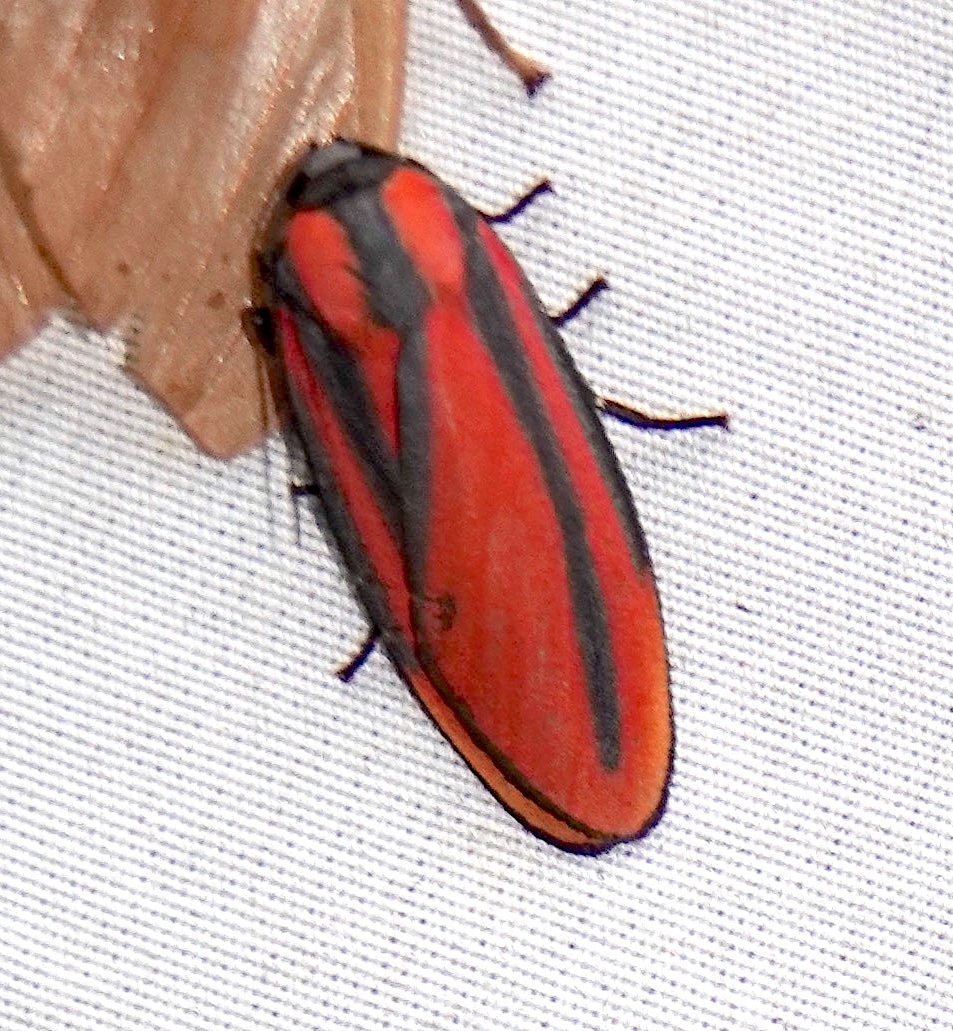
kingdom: Animalia
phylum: Arthropoda
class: Insecta
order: Lepidoptera
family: Erebidae
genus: Cissura
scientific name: Cissura unilineata
